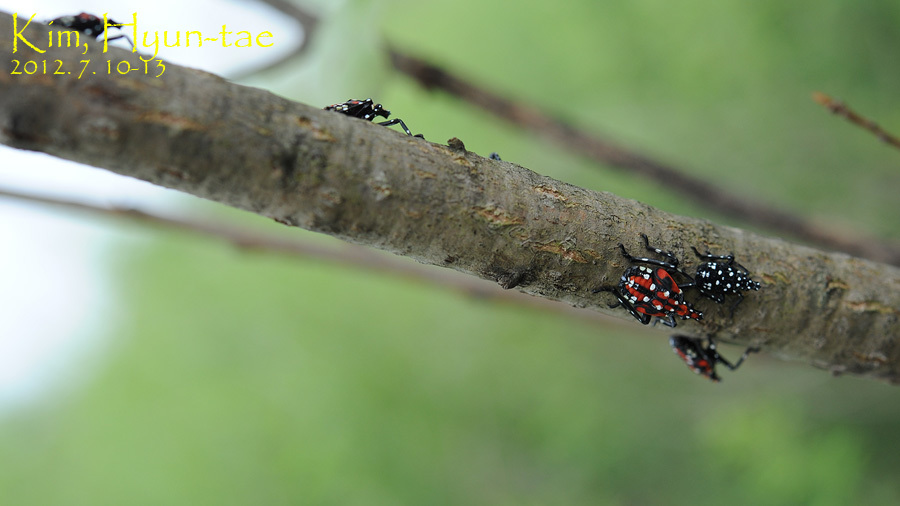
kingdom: Animalia
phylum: Arthropoda
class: Insecta
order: Hemiptera
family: Fulgoridae
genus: Lycorma
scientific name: Lycorma delicatula
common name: Spotted lanternfly
